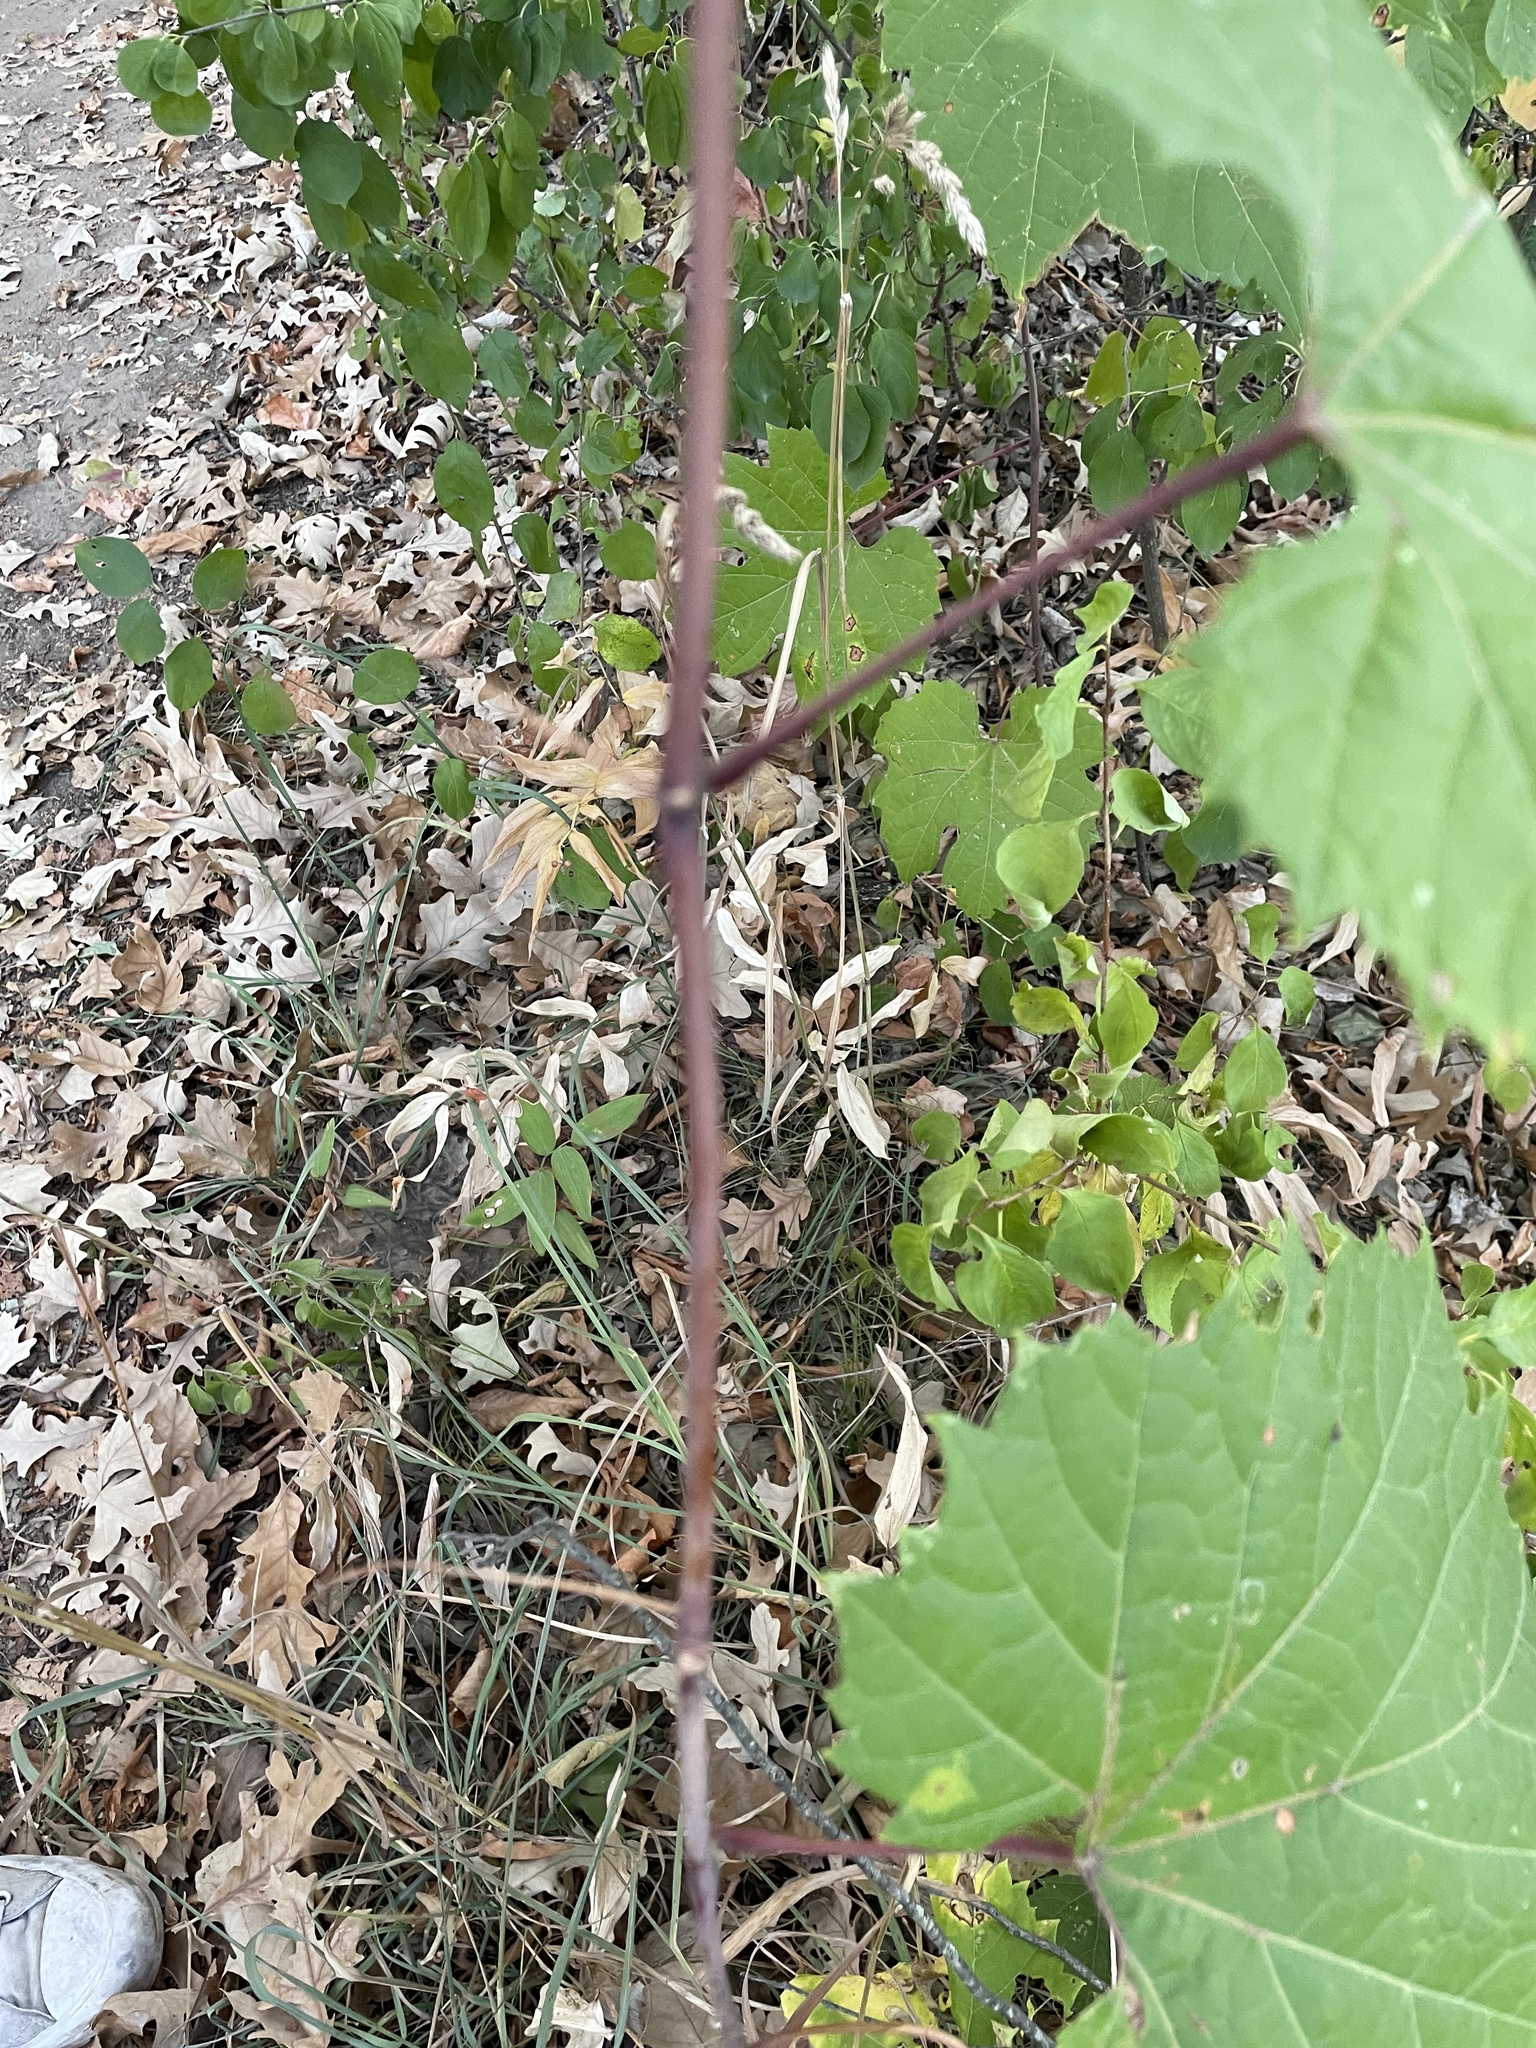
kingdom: Plantae
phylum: Tracheophyta
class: Magnoliopsida
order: Vitales
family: Vitaceae
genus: Vitis
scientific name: Vitis riparia
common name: Frost grape
